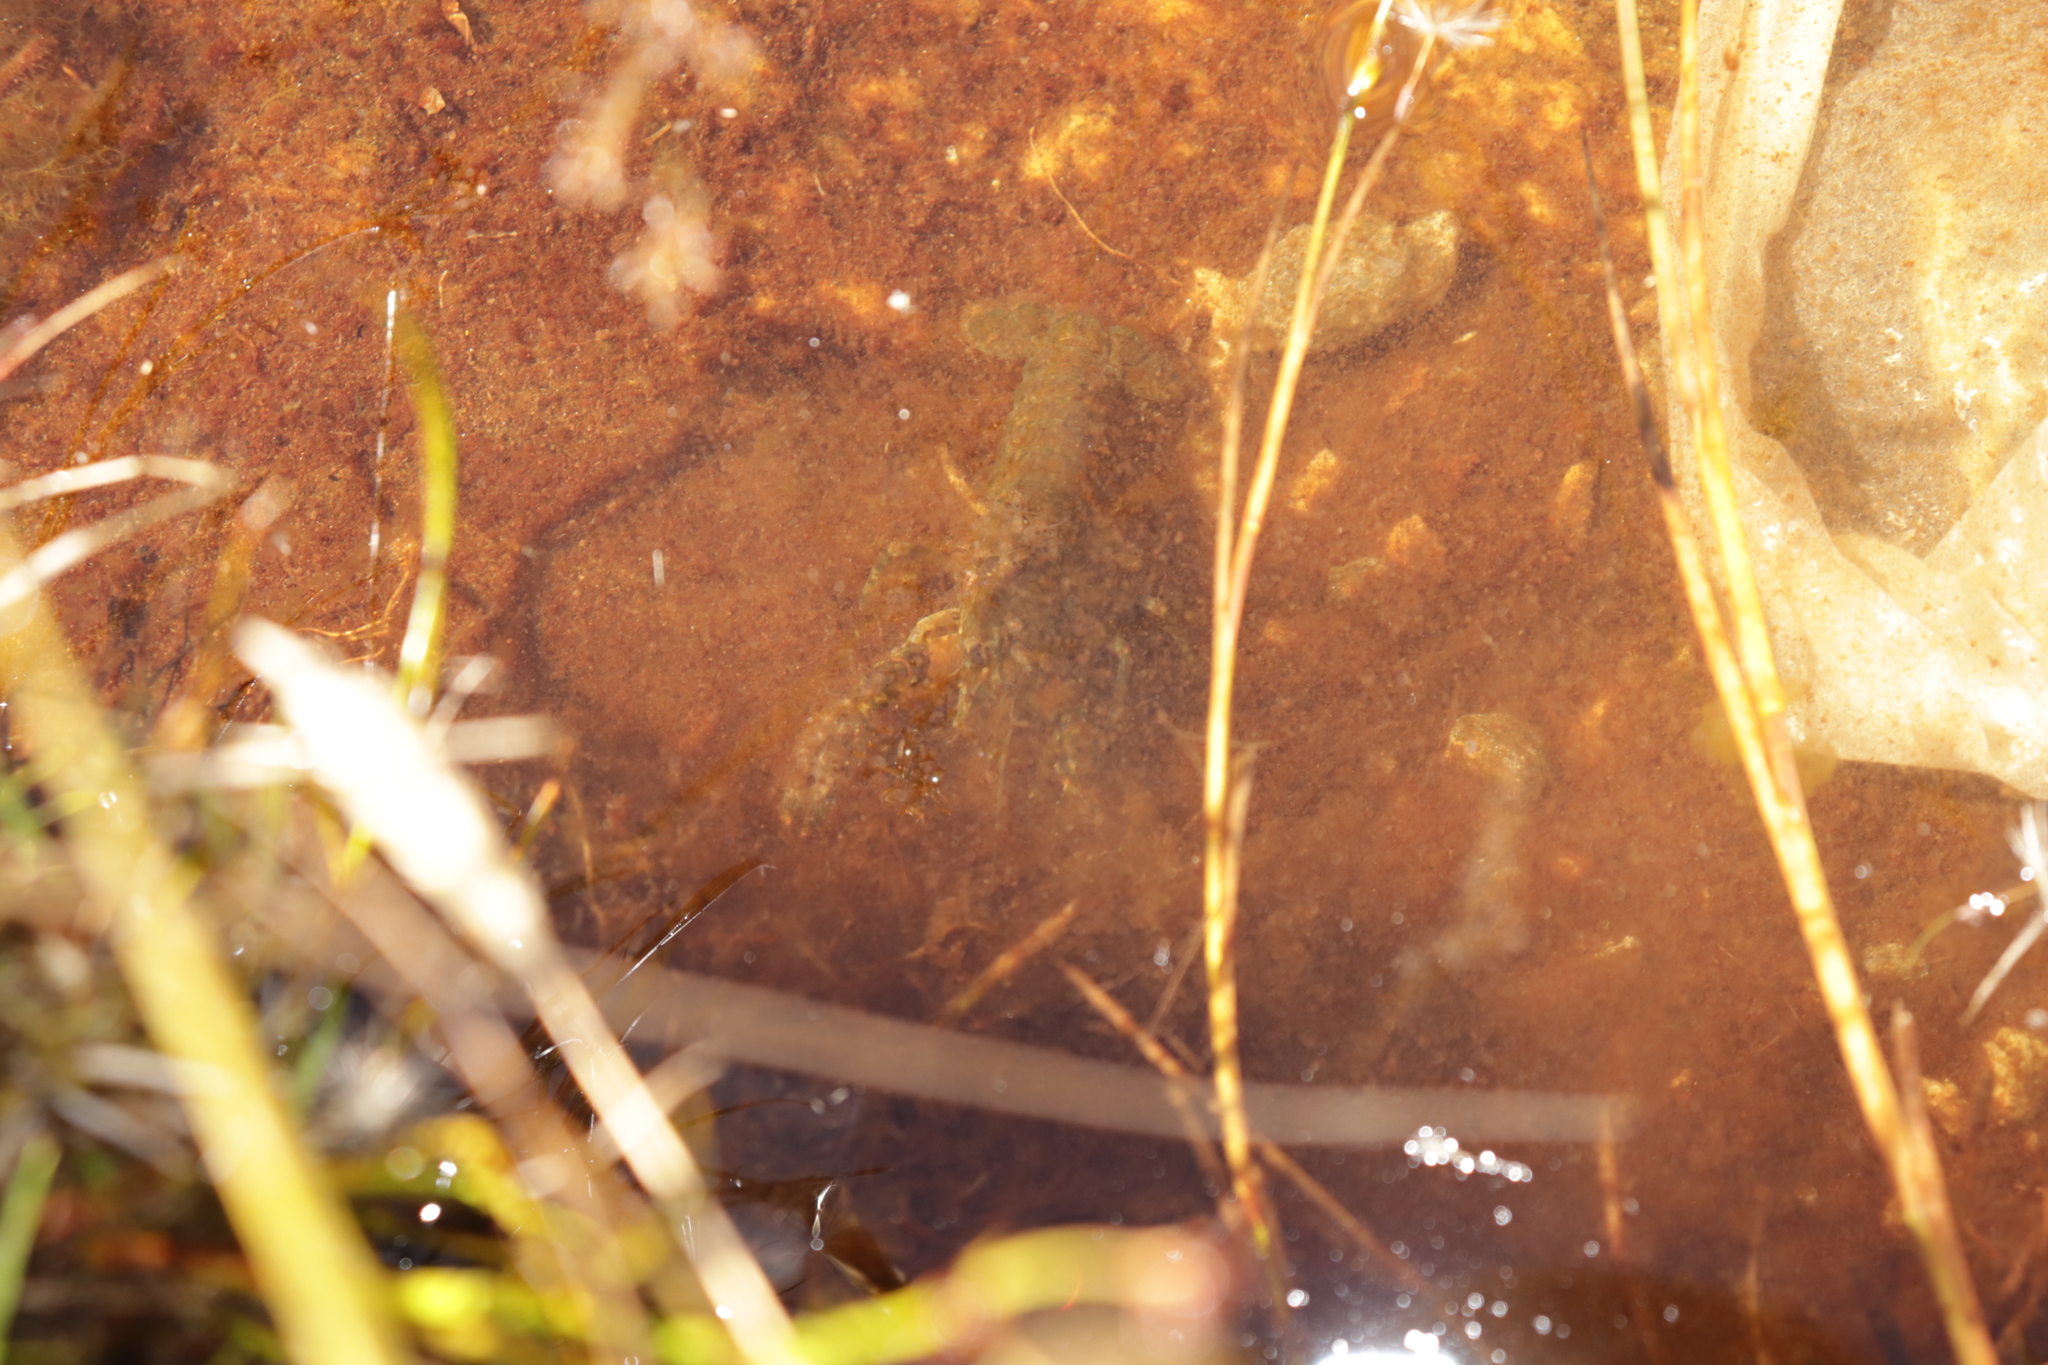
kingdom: Animalia
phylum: Arthropoda
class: Malacostraca
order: Decapoda
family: Parastacidae
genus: Paranephrops
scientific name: Paranephrops zealandicus
